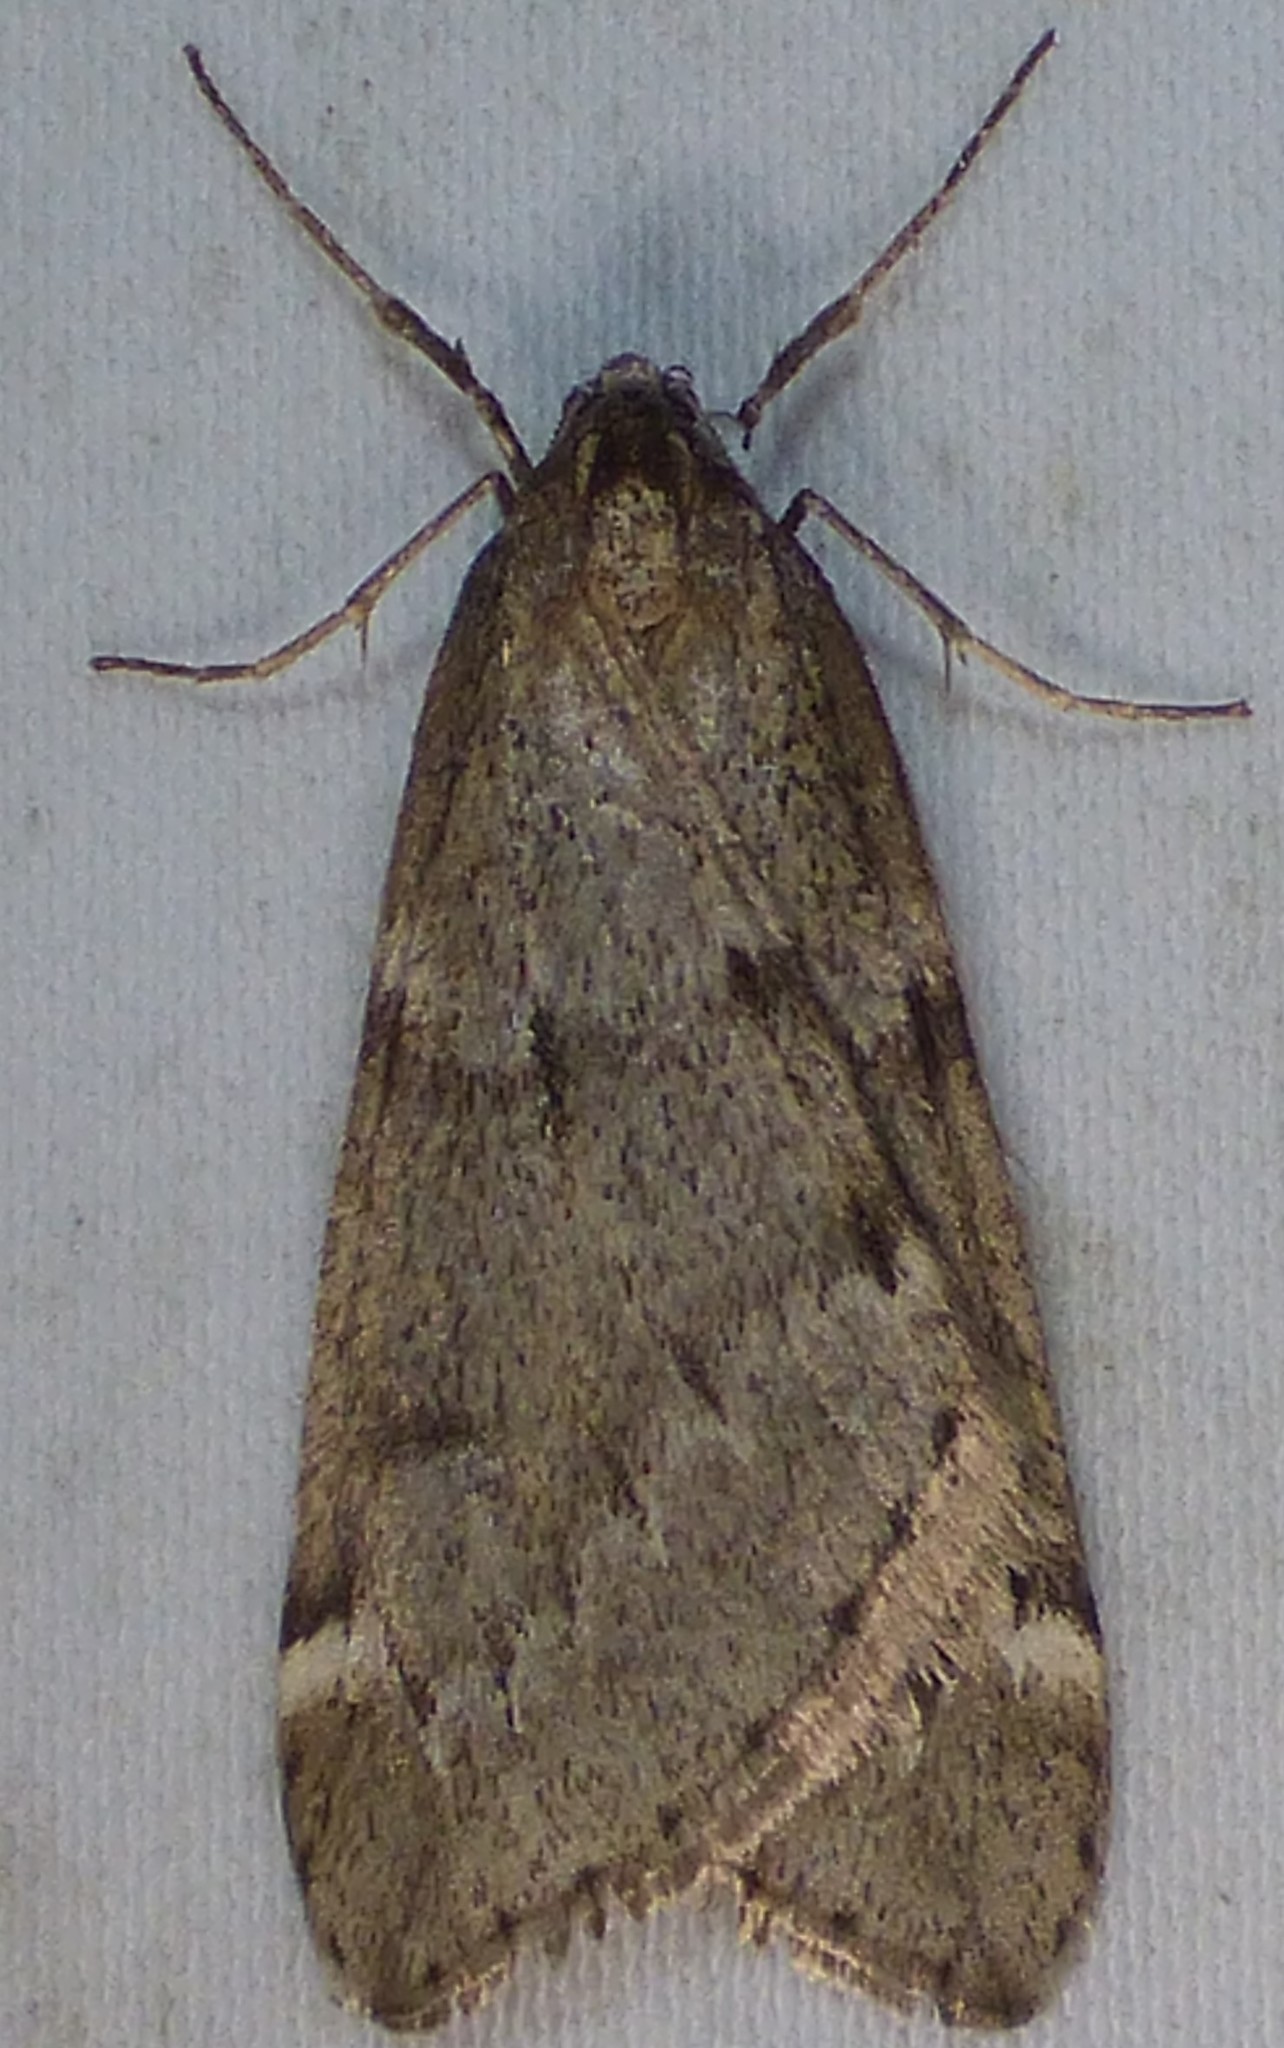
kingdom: Animalia
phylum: Arthropoda
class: Insecta
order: Lepidoptera
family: Geometridae
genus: Alsophila
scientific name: Alsophila pometaria
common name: Fall cankerworm
